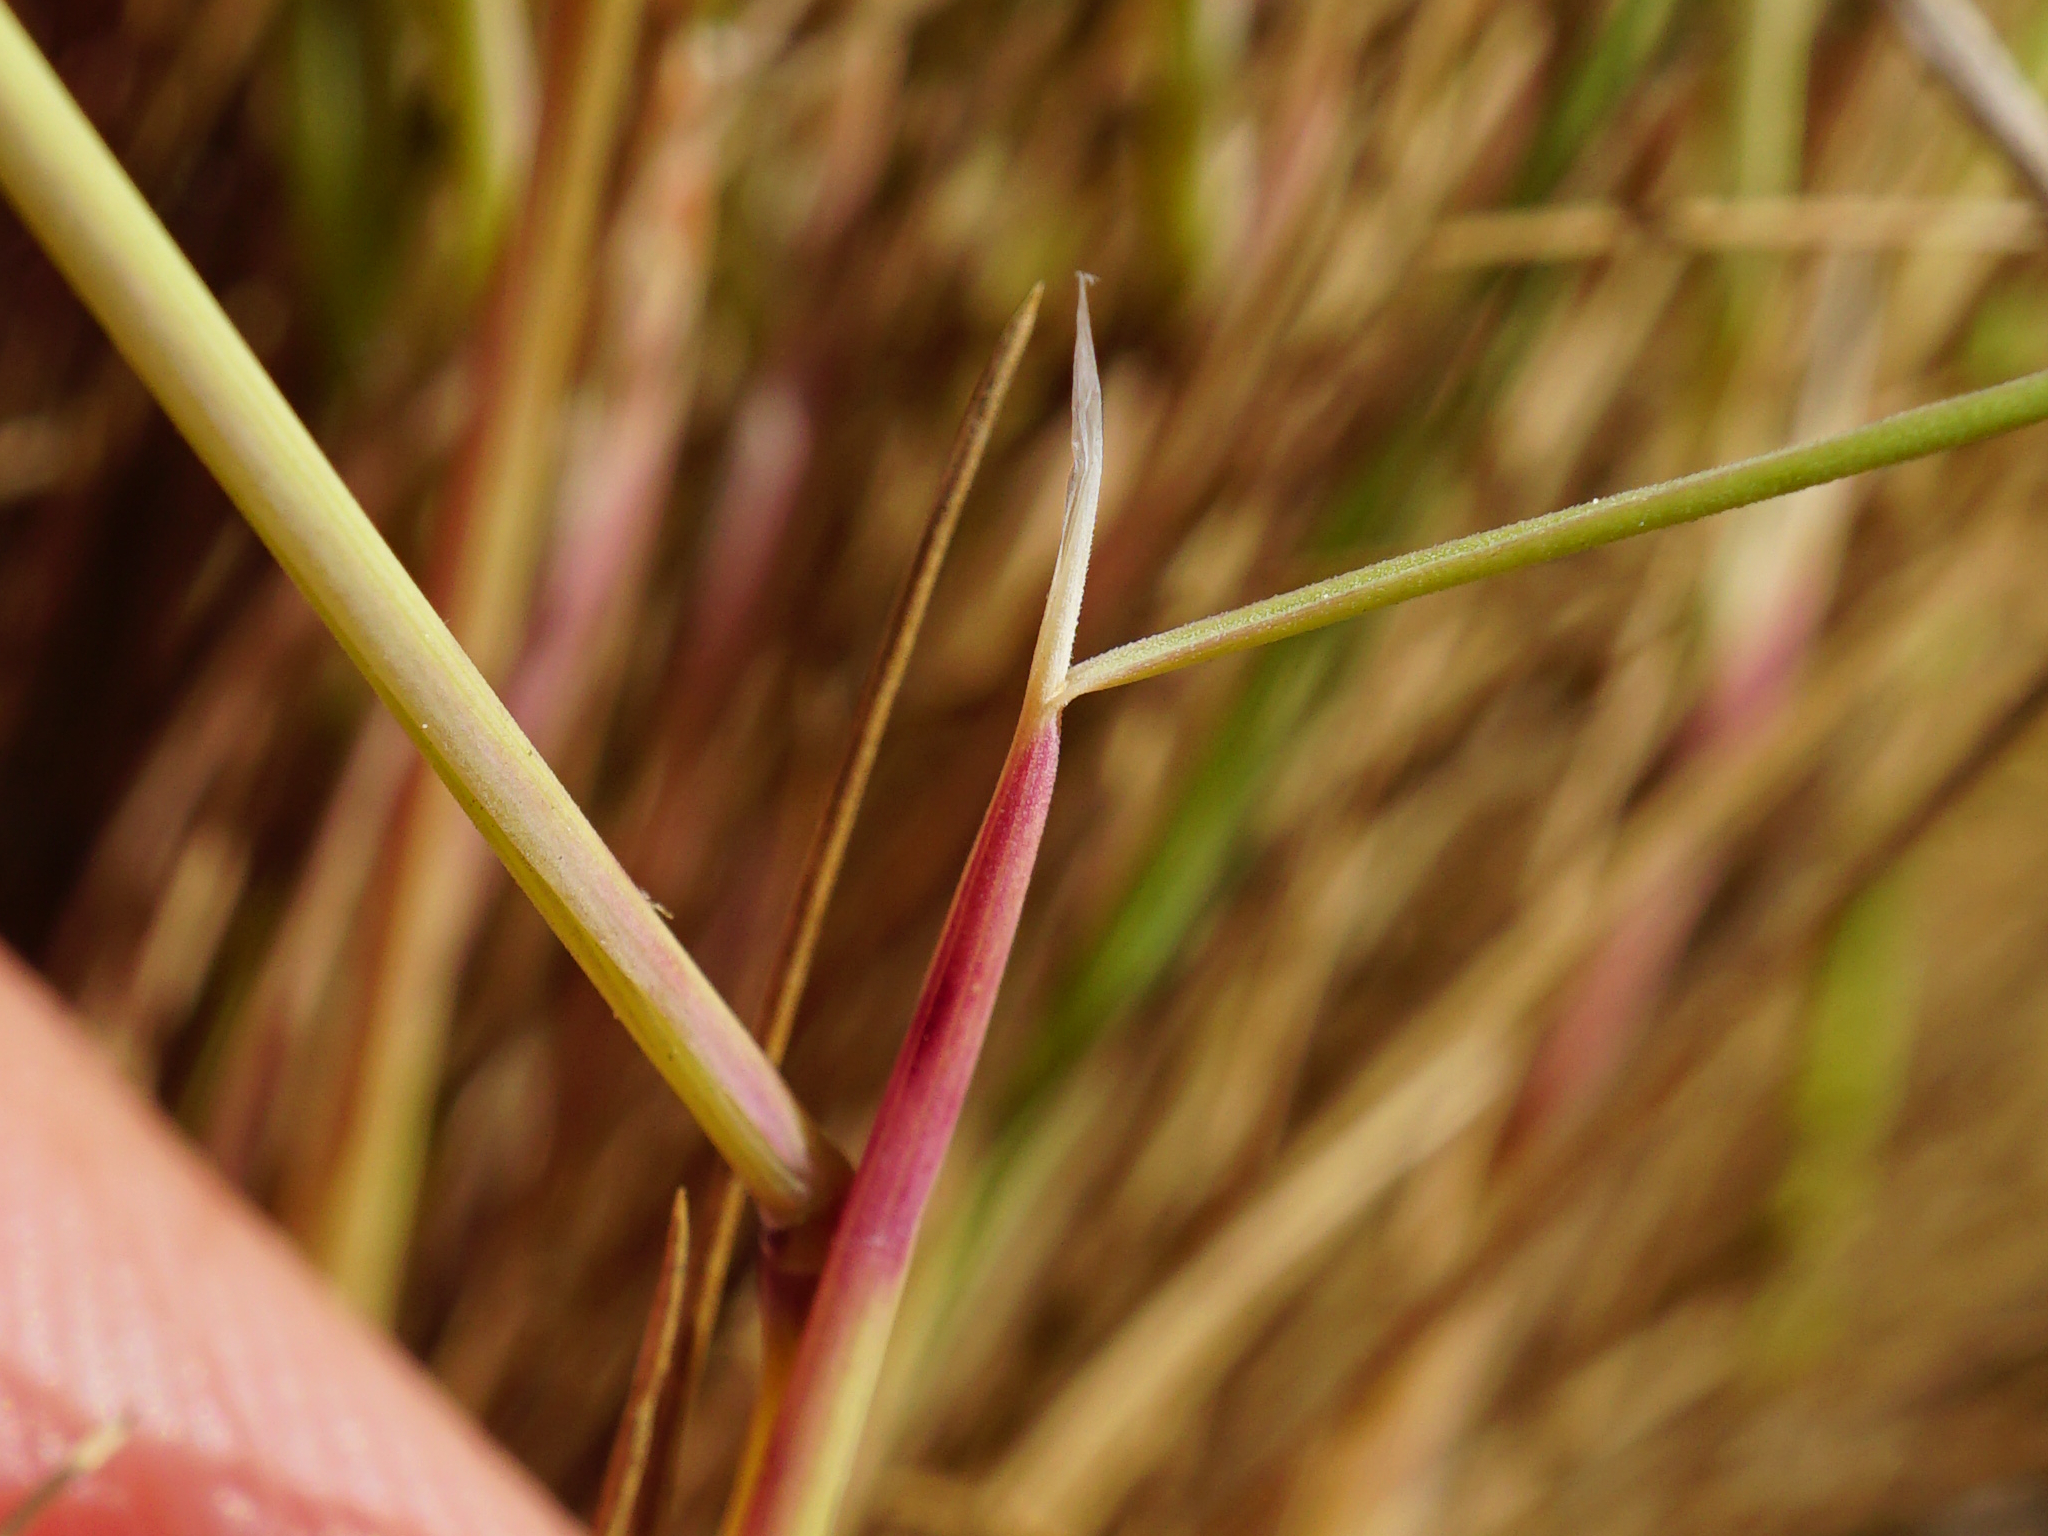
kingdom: Plantae
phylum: Tracheophyta
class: Liliopsida
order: Poales
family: Poaceae
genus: Corynephorus
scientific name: Corynephorus canescens
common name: Grey hair-grass
